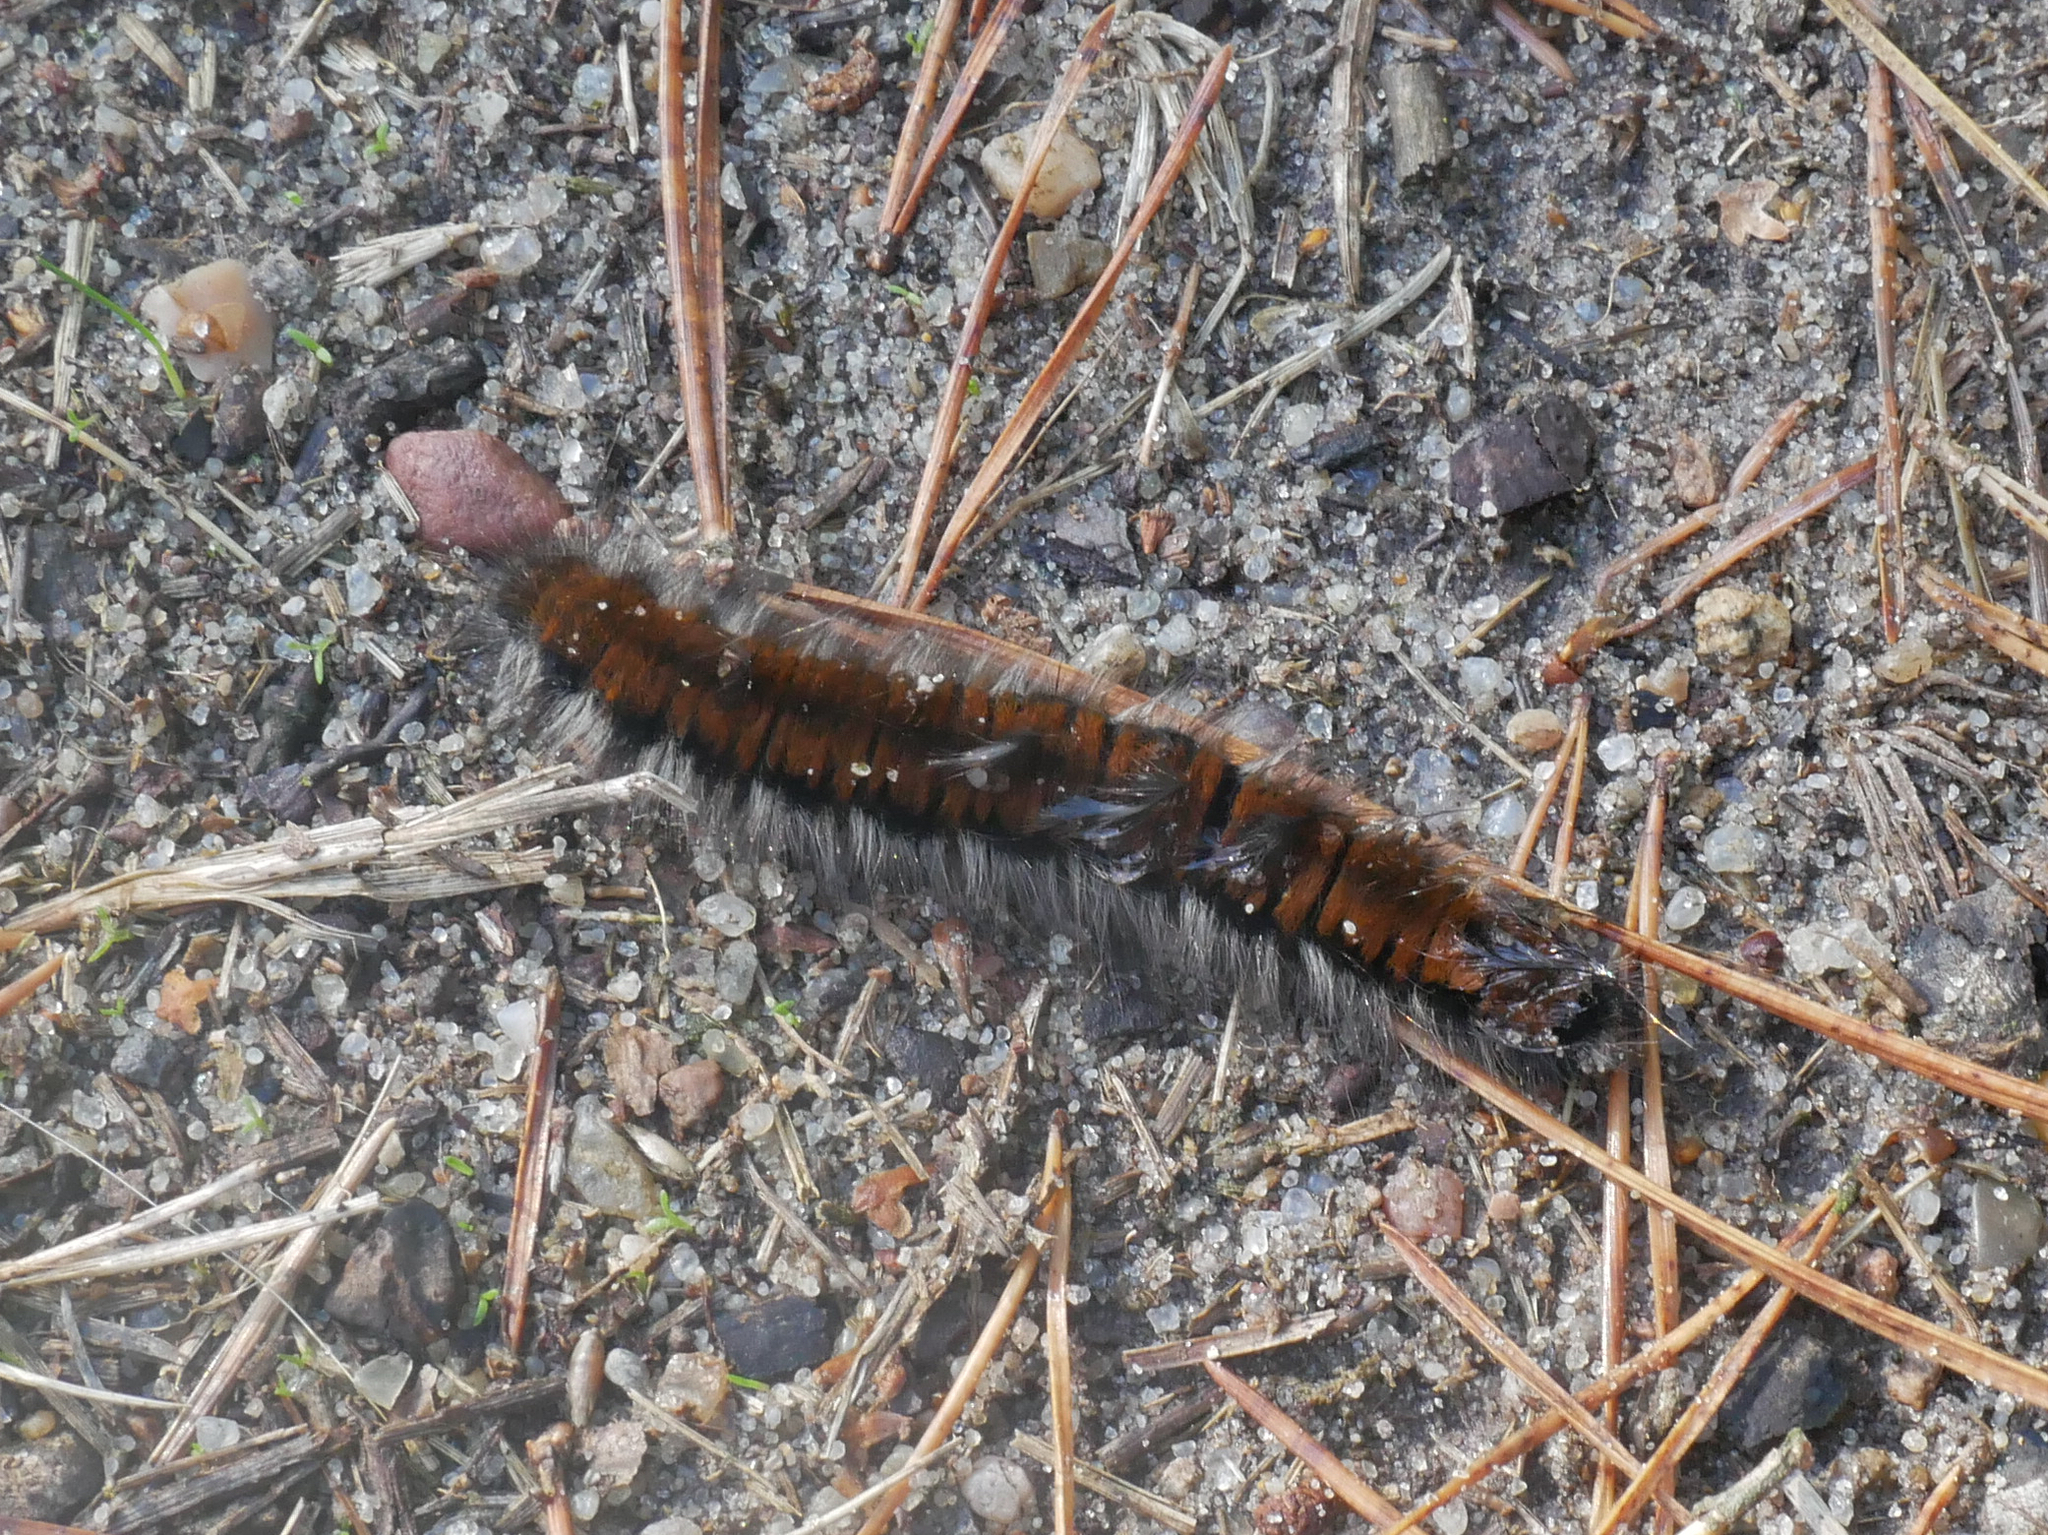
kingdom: Animalia
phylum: Arthropoda
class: Insecta
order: Lepidoptera
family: Lasiocampidae
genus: Macrothylacia
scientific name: Macrothylacia rubi
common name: Fox moth
